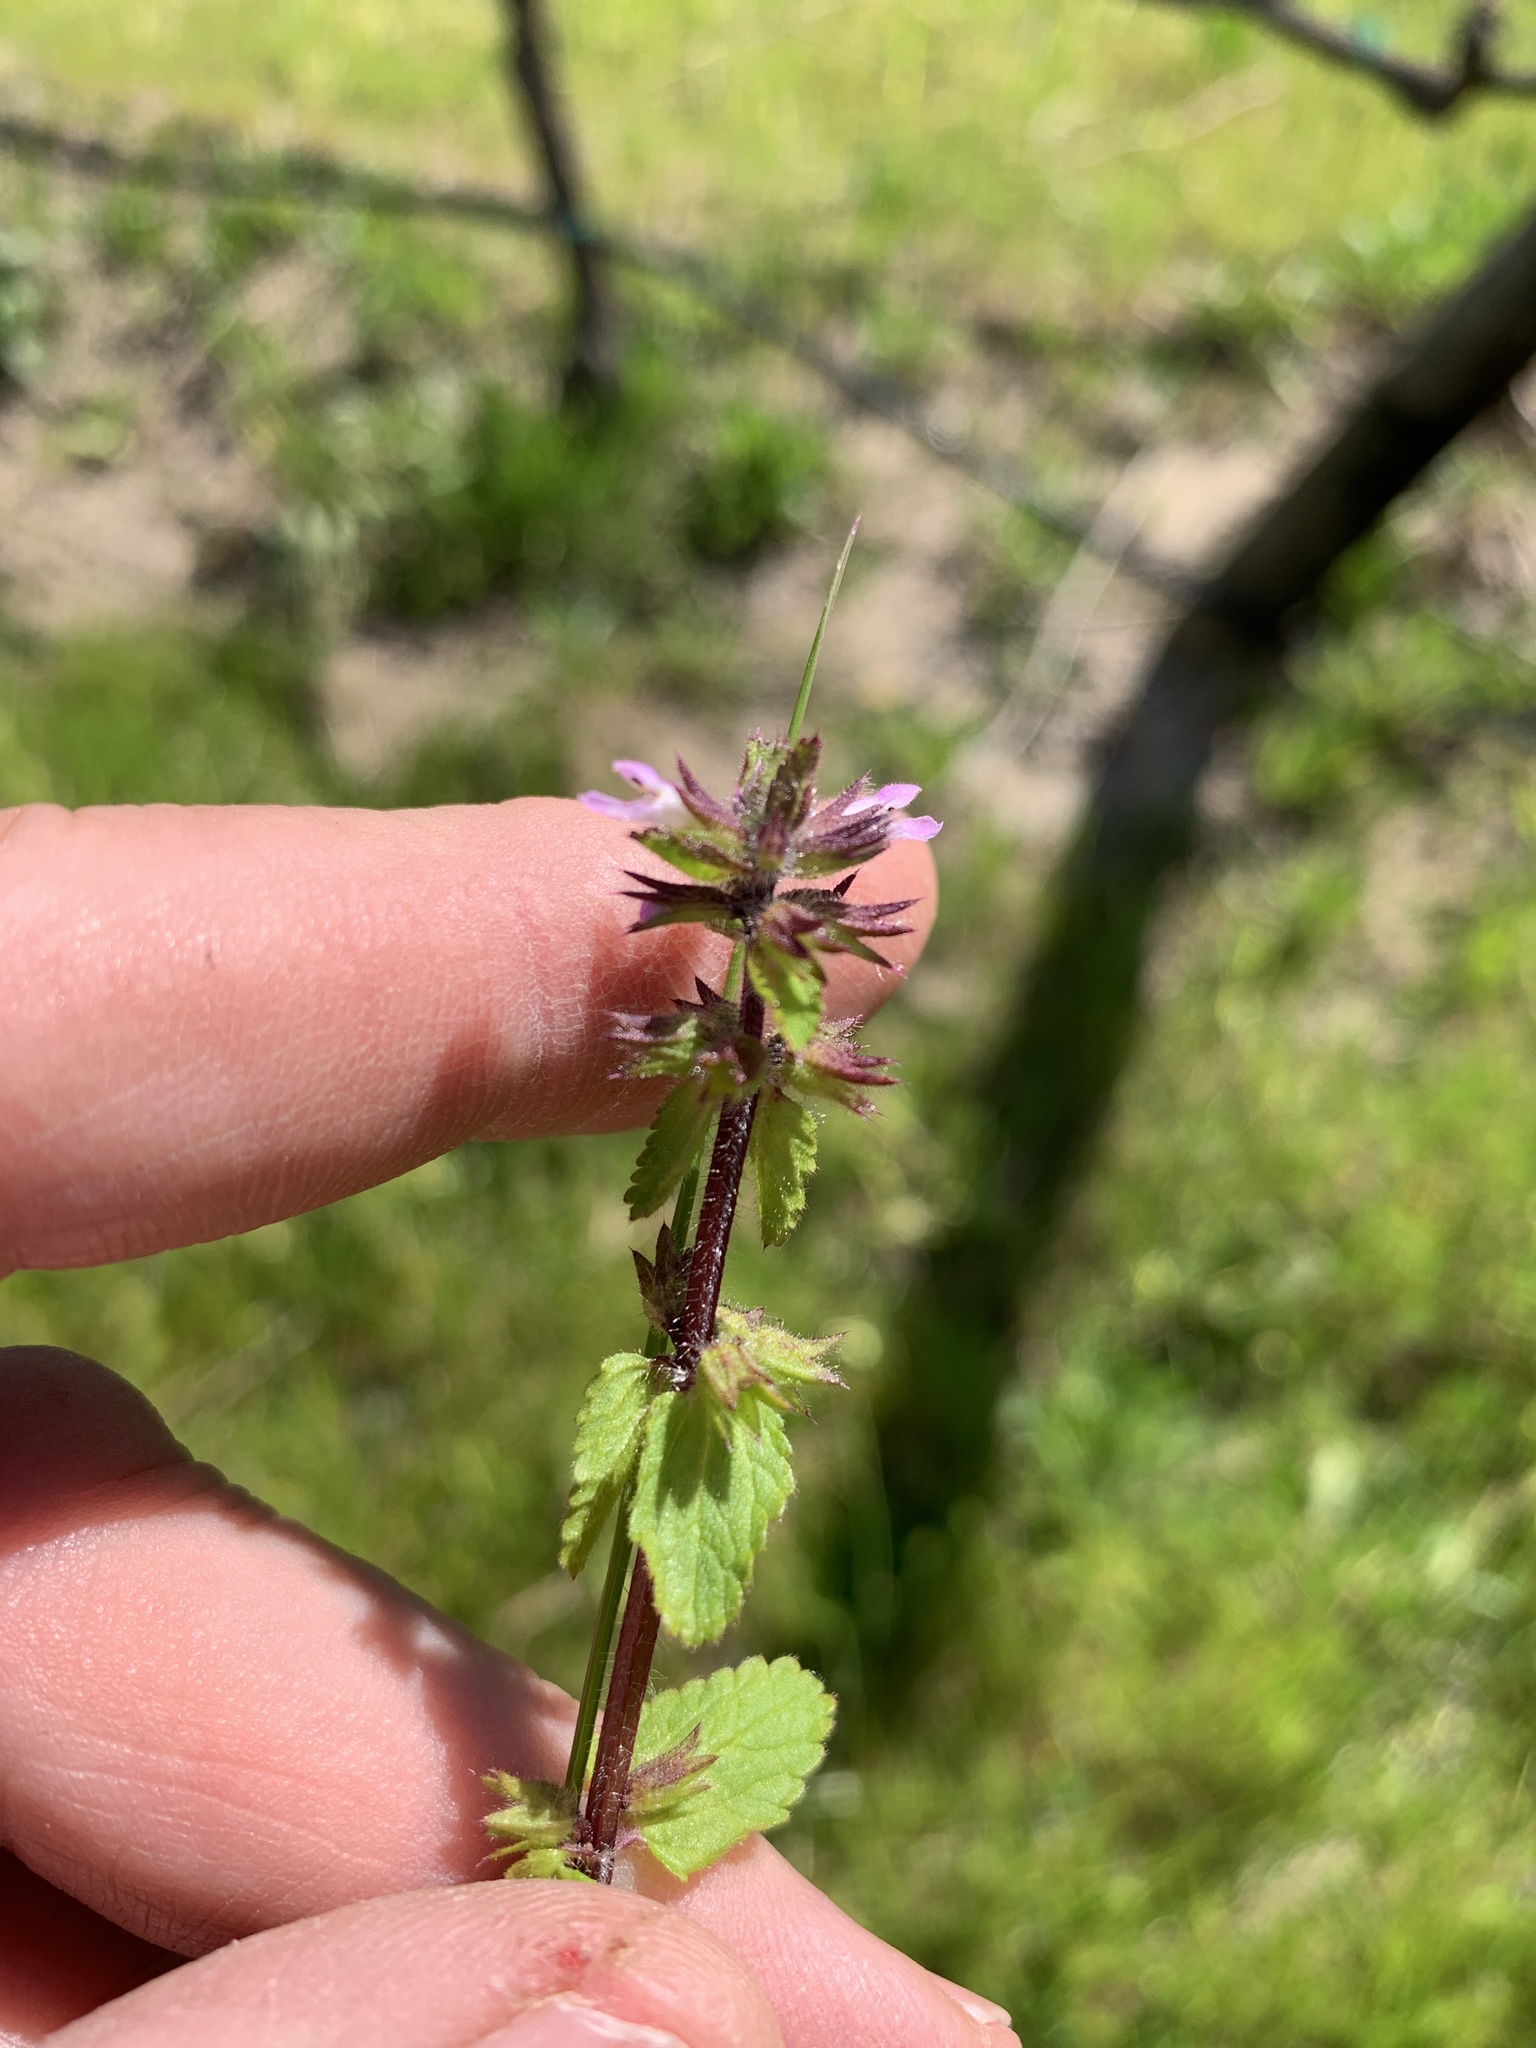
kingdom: Plantae
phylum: Tracheophyta
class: Magnoliopsida
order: Lamiales
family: Lamiaceae
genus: Stachys
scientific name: Stachys arvensis
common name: Field woundwort
